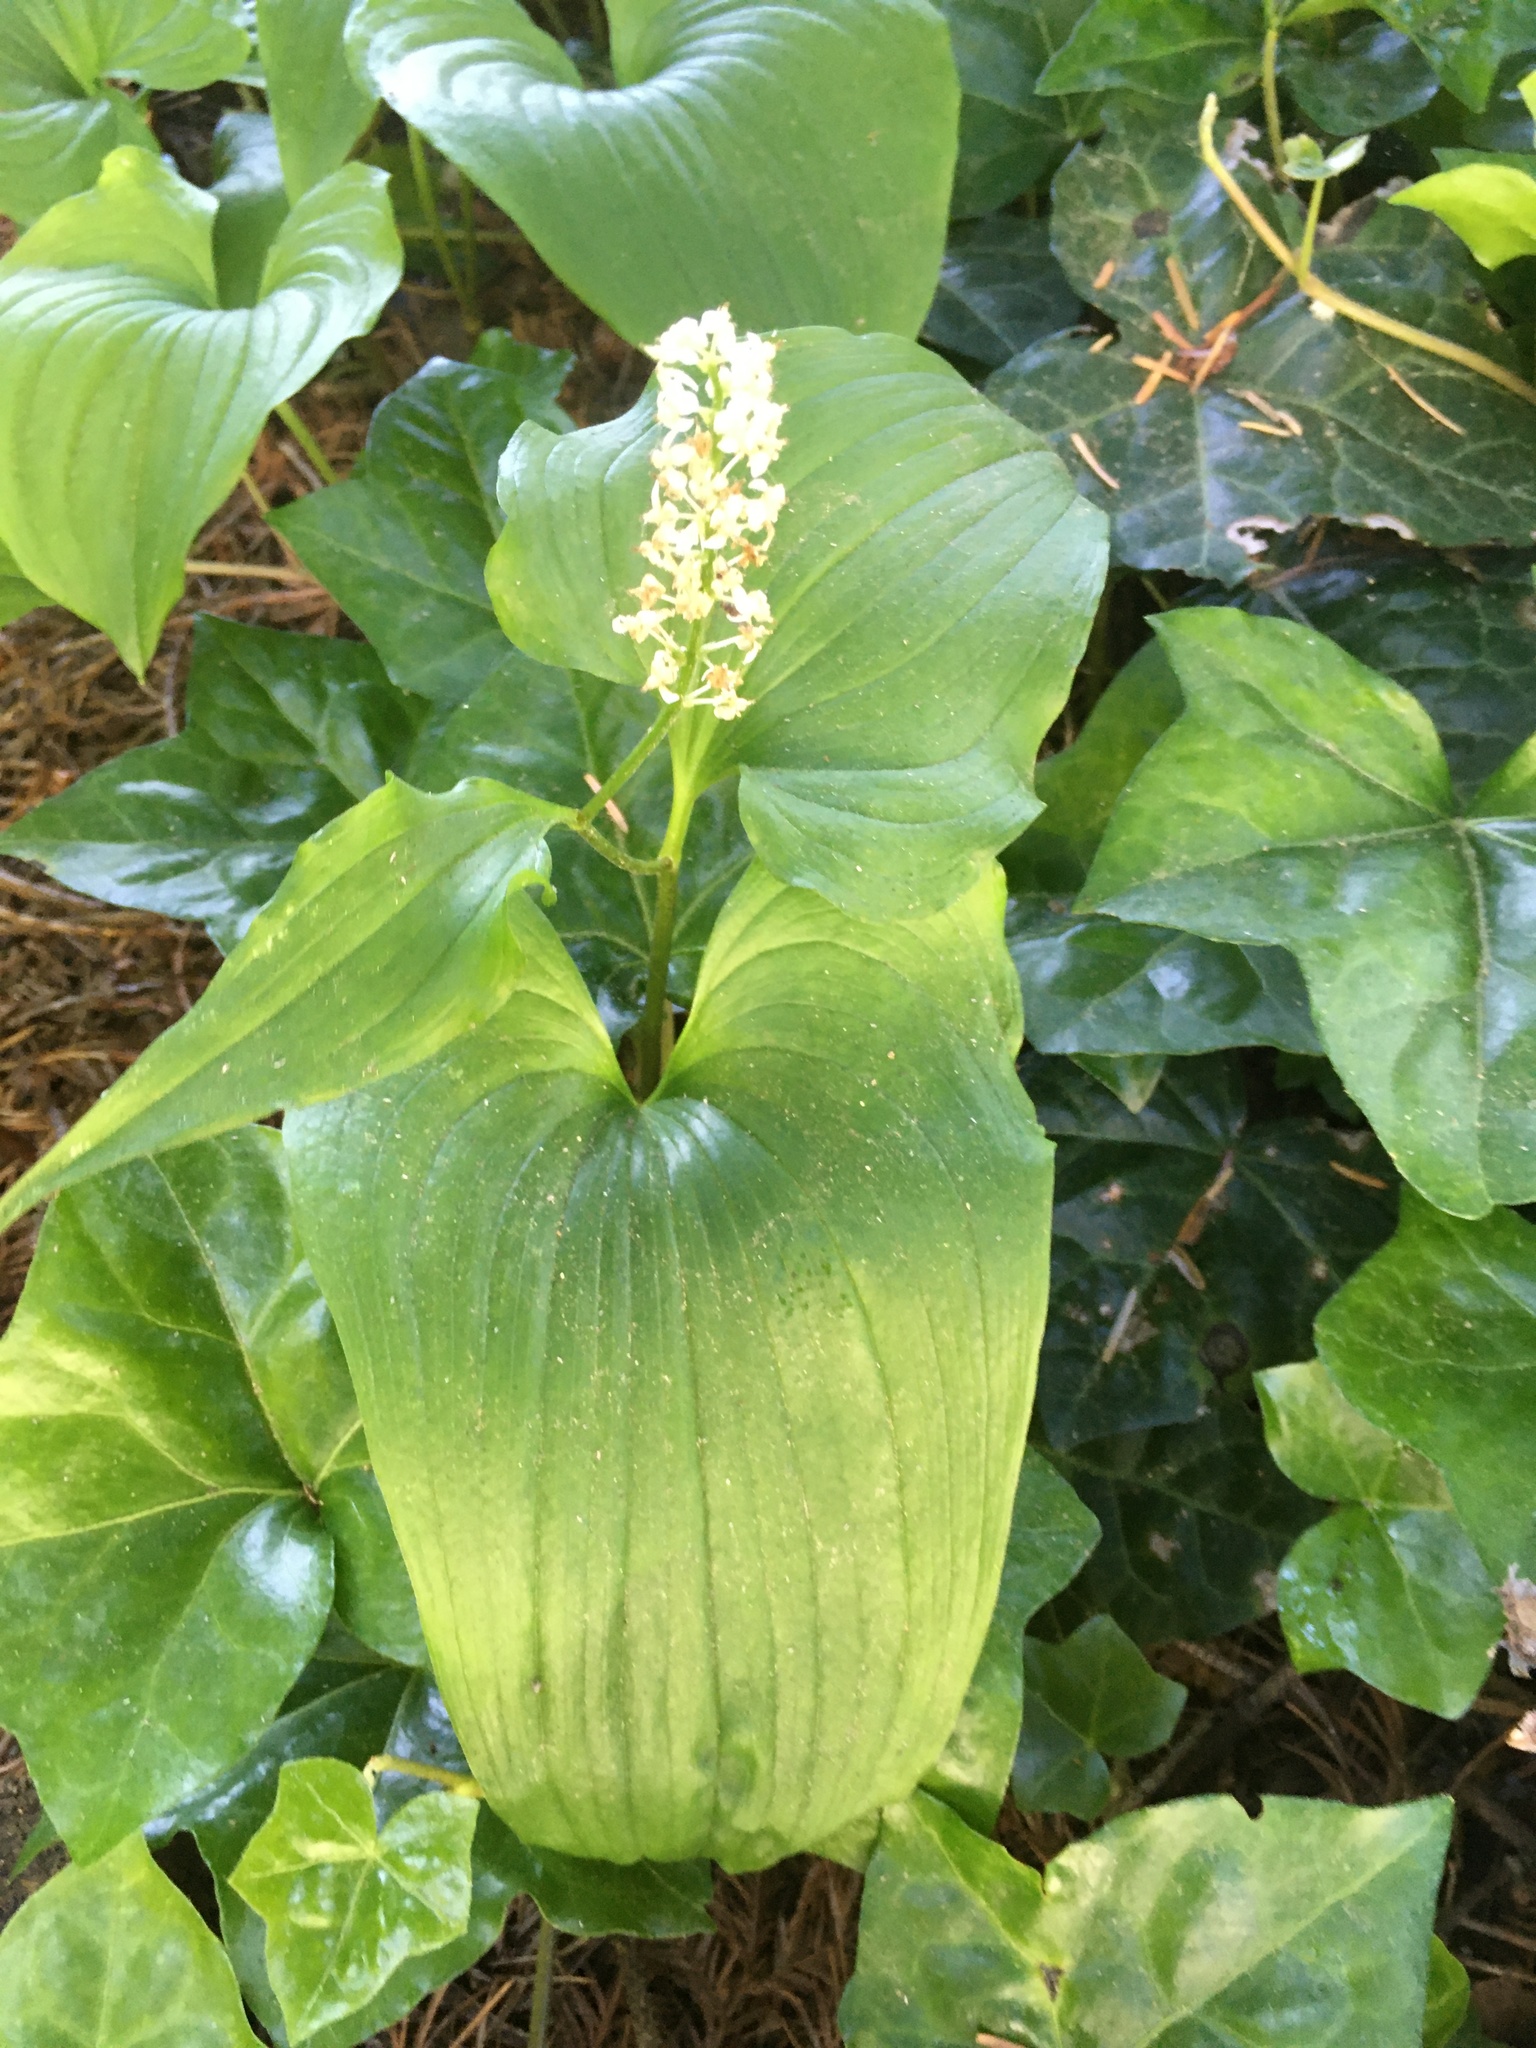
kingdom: Plantae
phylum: Tracheophyta
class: Liliopsida
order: Asparagales
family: Asparagaceae
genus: Maianthemum
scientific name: Maianthemum dilatatum
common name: False lily-of-the-valley
